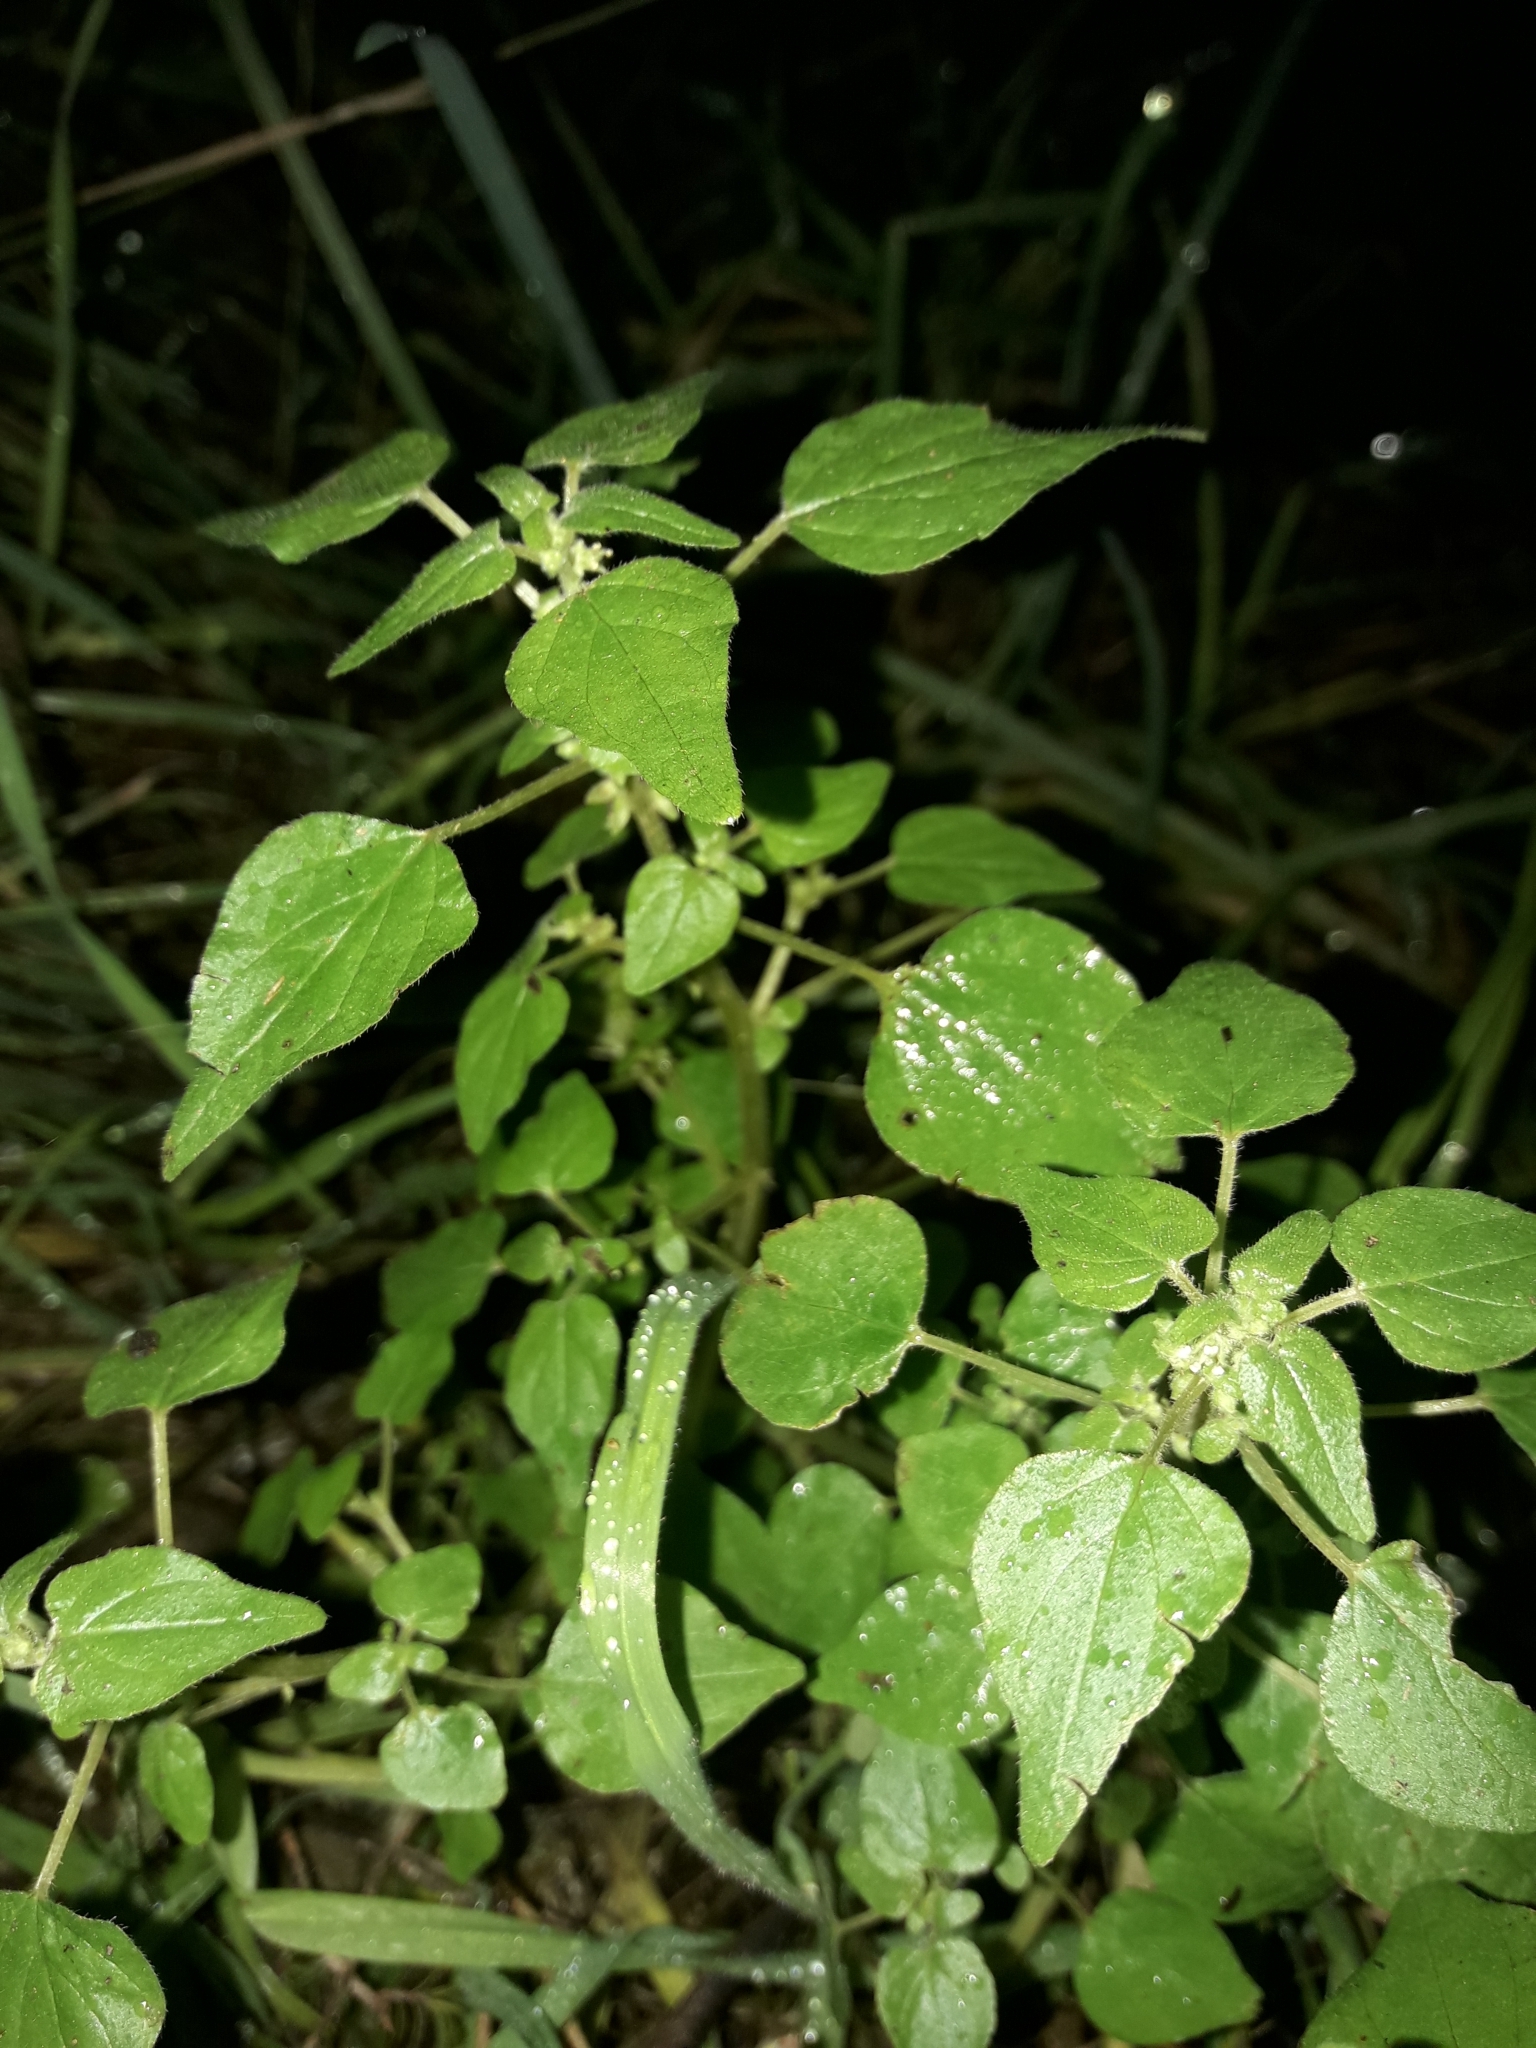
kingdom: Plantae
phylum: Tracheophyta
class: Magnoliopsida
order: Rosales
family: Urticaceae
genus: Parietaria
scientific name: Parietaria debilis
